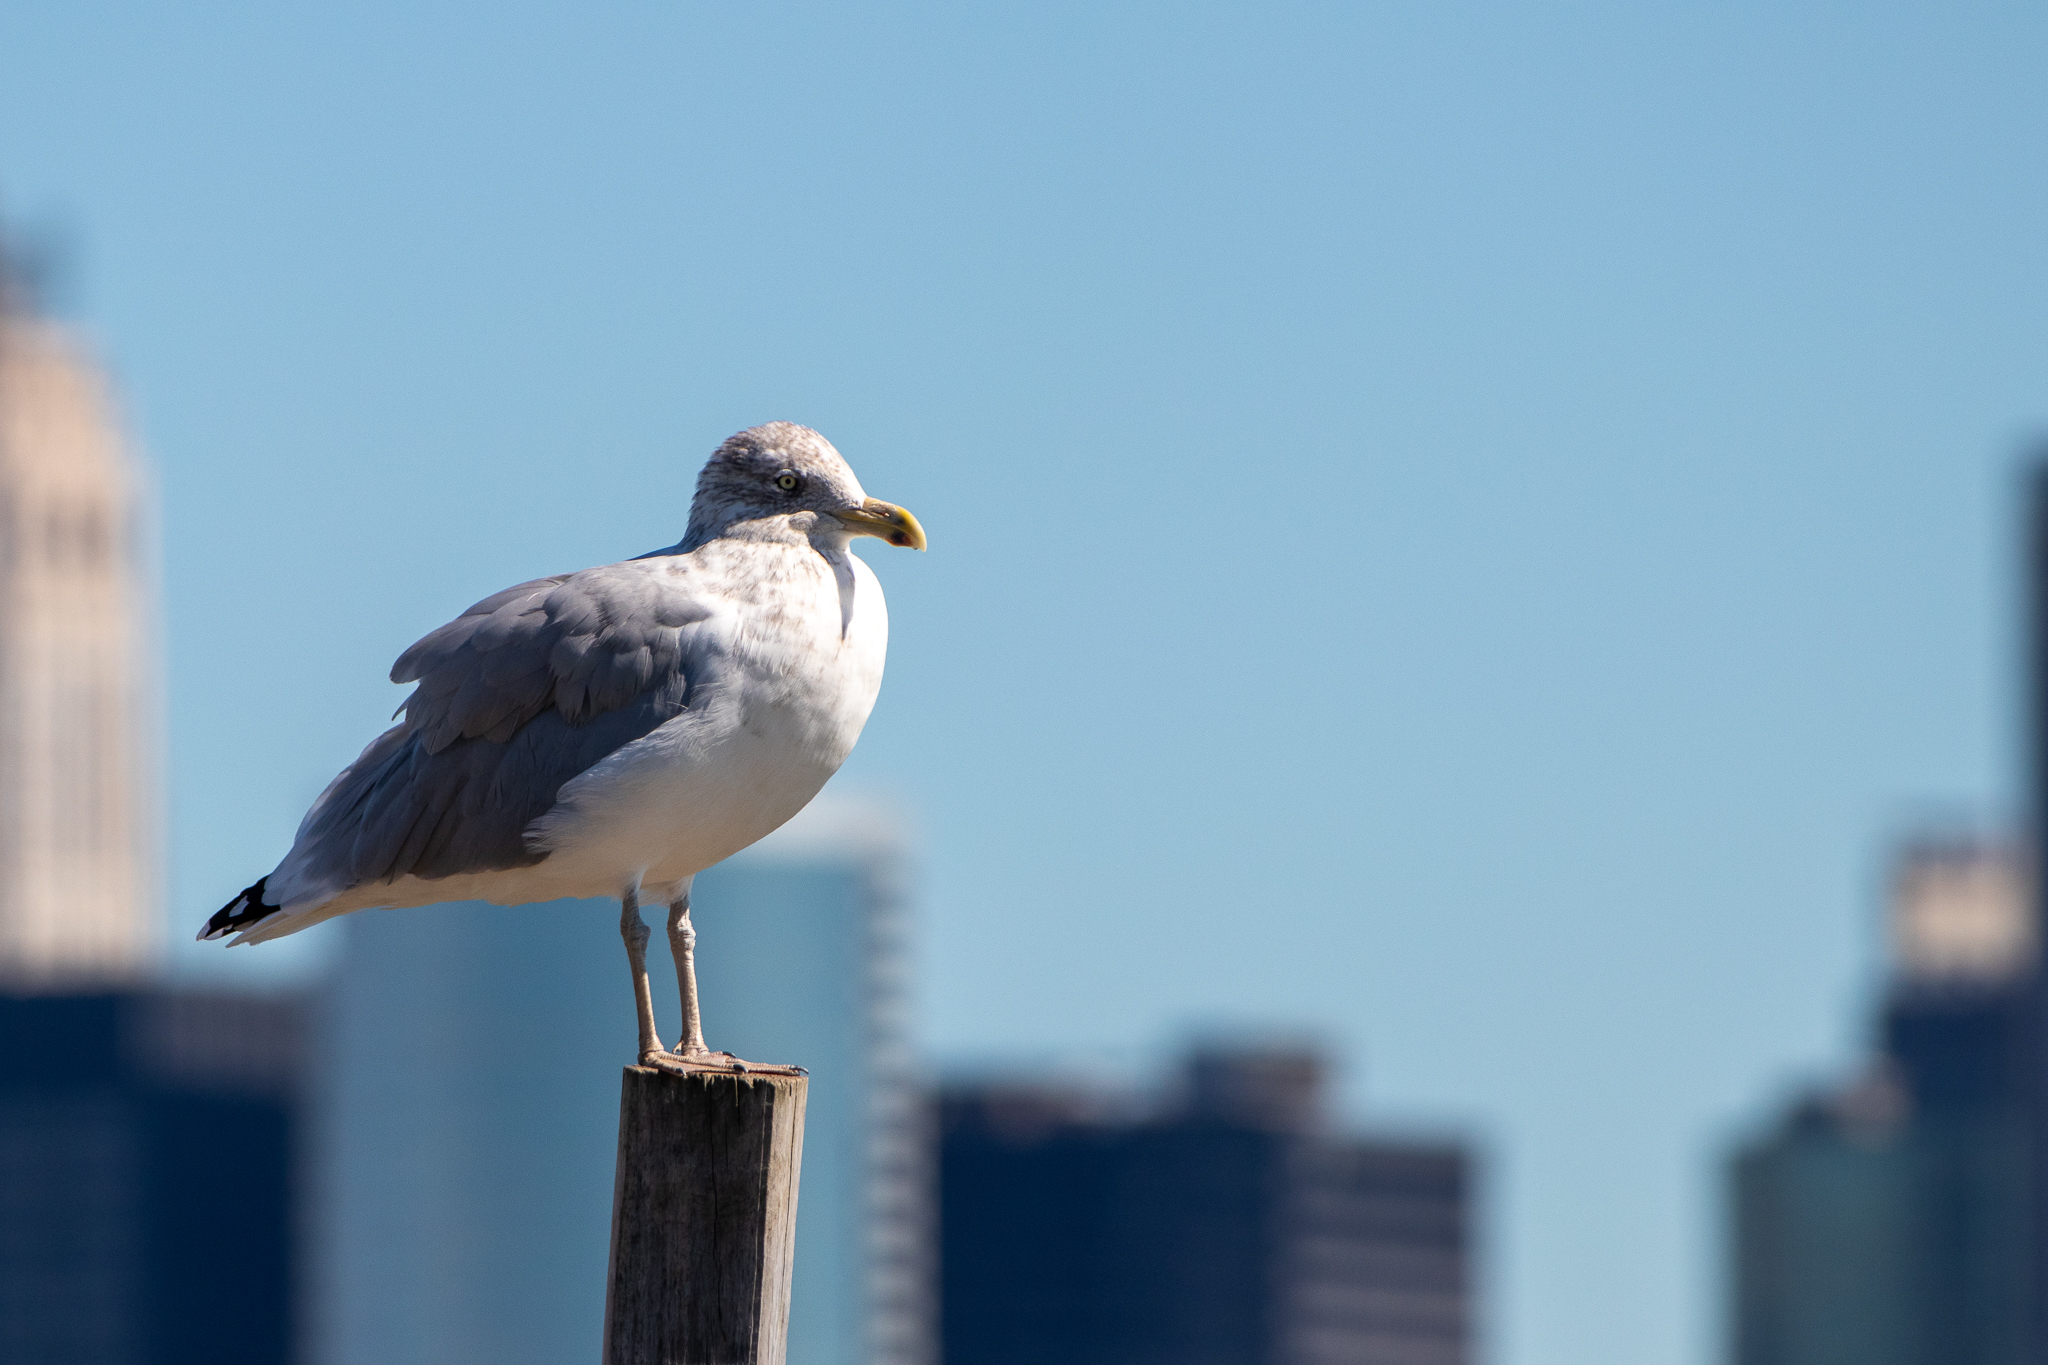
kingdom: Animalia
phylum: Chordata
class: Aves
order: Charadriiformes
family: Laridae
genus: Larus
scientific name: Larus argentatus
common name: Herring gull
